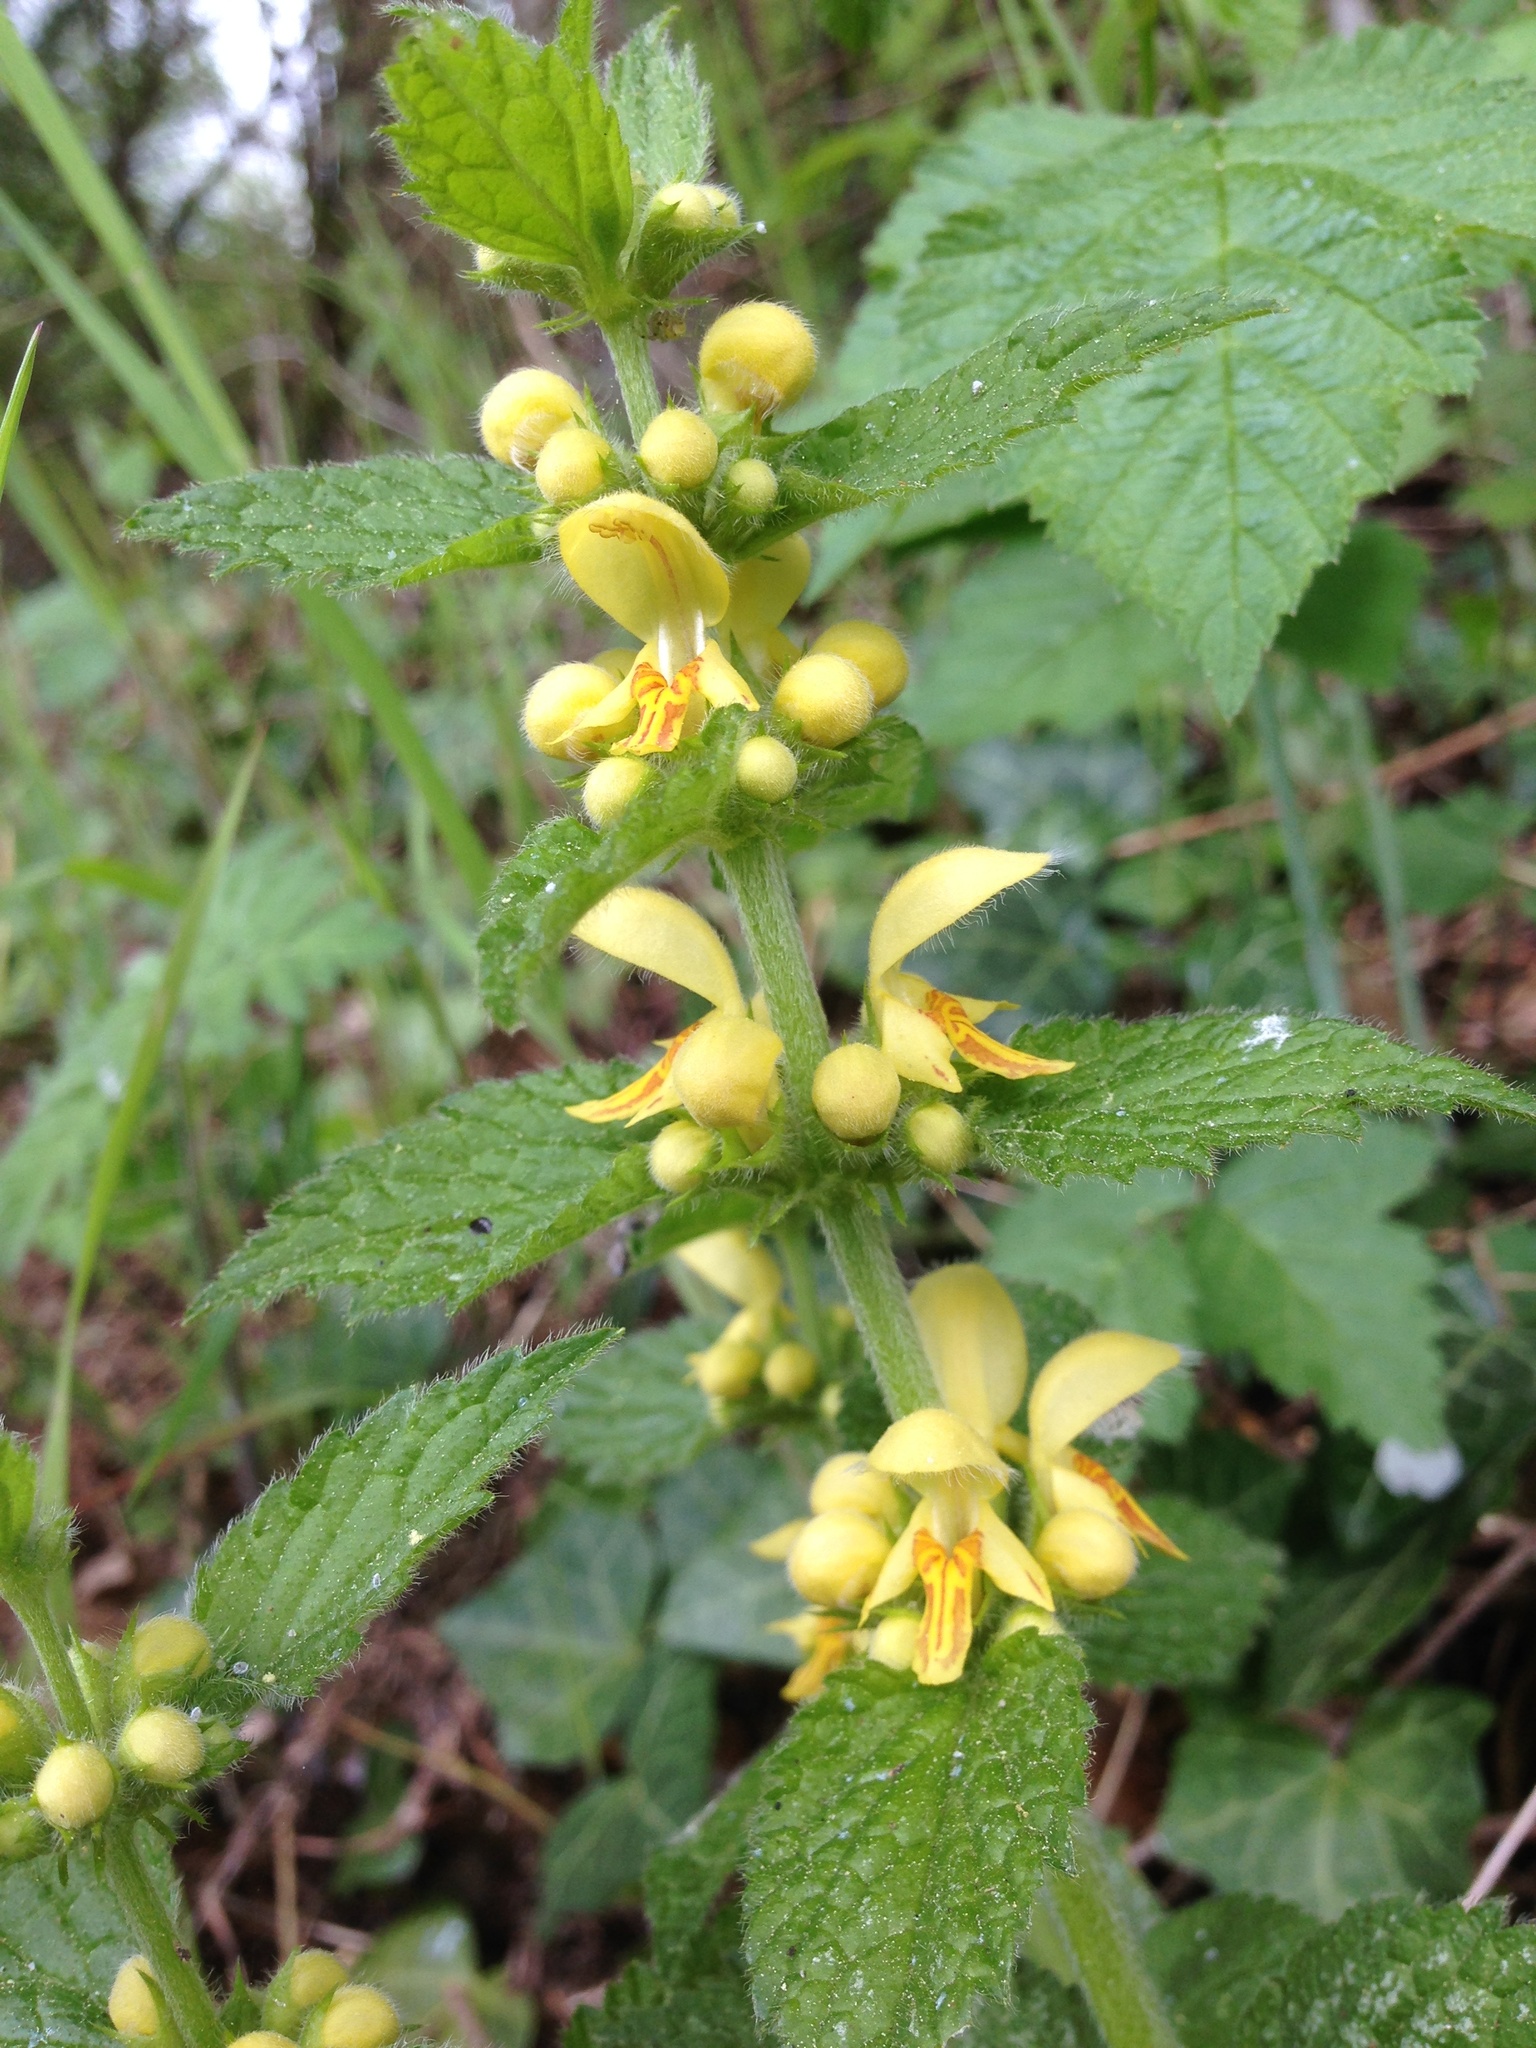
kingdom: Plantae
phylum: Tracheophyta
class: Magnoliopsida
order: Lamiales
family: Lamiaceae
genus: Lamium
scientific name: Lamium galeobdolon
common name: Yellow archangel
